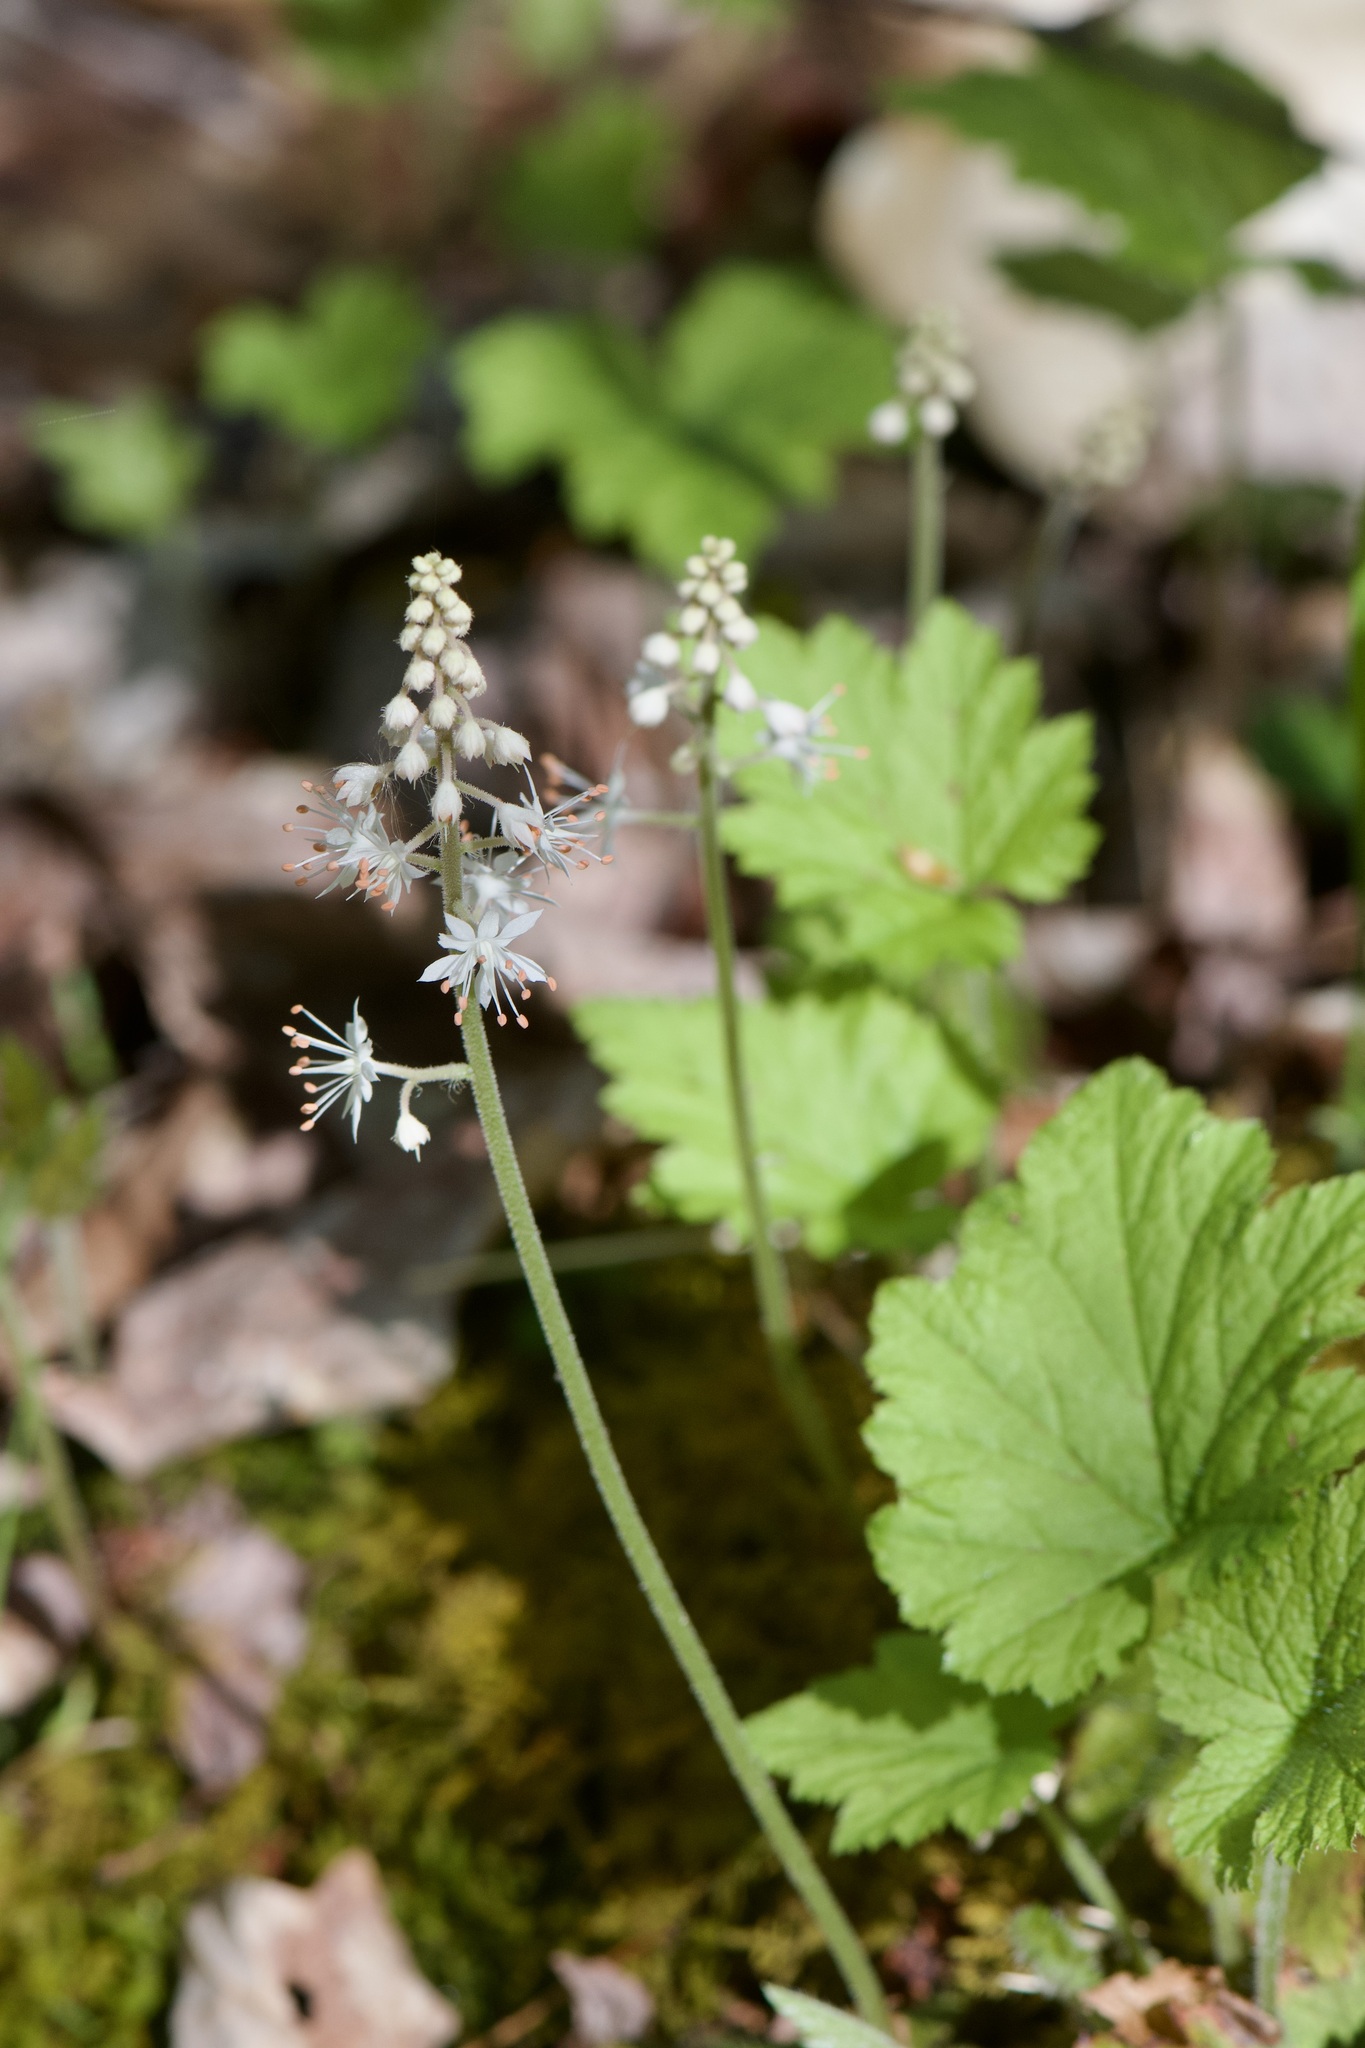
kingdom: Plantae
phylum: Tracheophyta
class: Magnoliopsida
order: Saxifragales
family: Saxifragaceae
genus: Tiarella
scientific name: Tiarella stolonifera
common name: Stoloniferous foamflower
